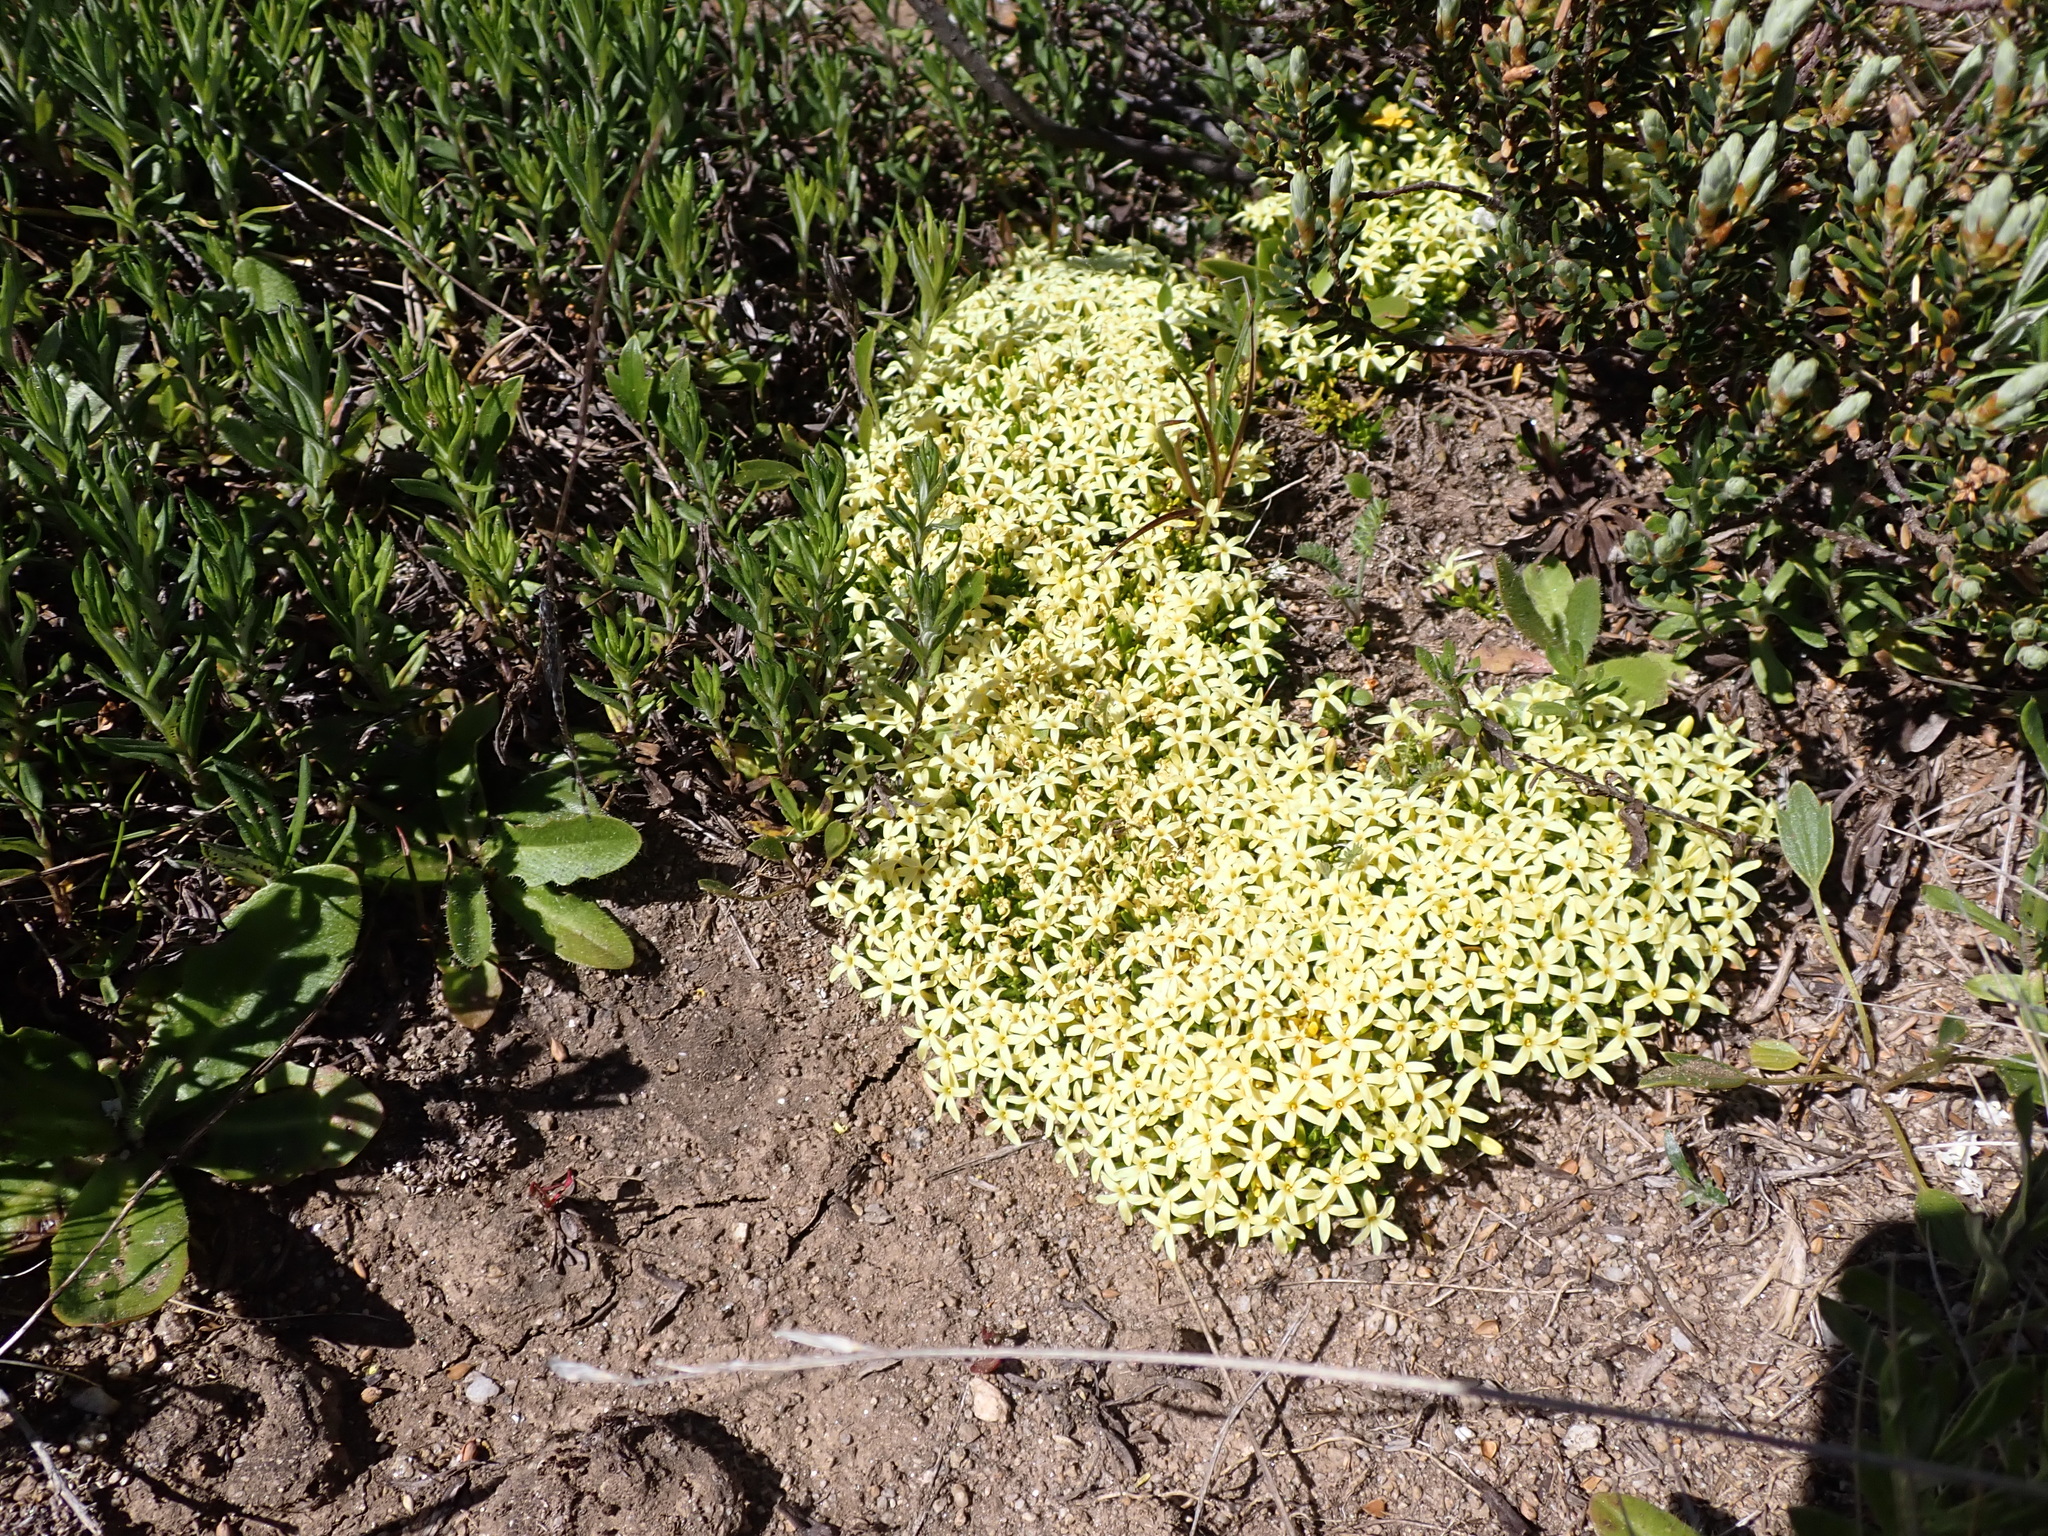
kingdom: Plantae
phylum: Tracheophyta
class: Magnoliopsida
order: Celastrales
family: Celastraceae
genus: Stackhousia
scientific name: Stackhousia pulvinaris
